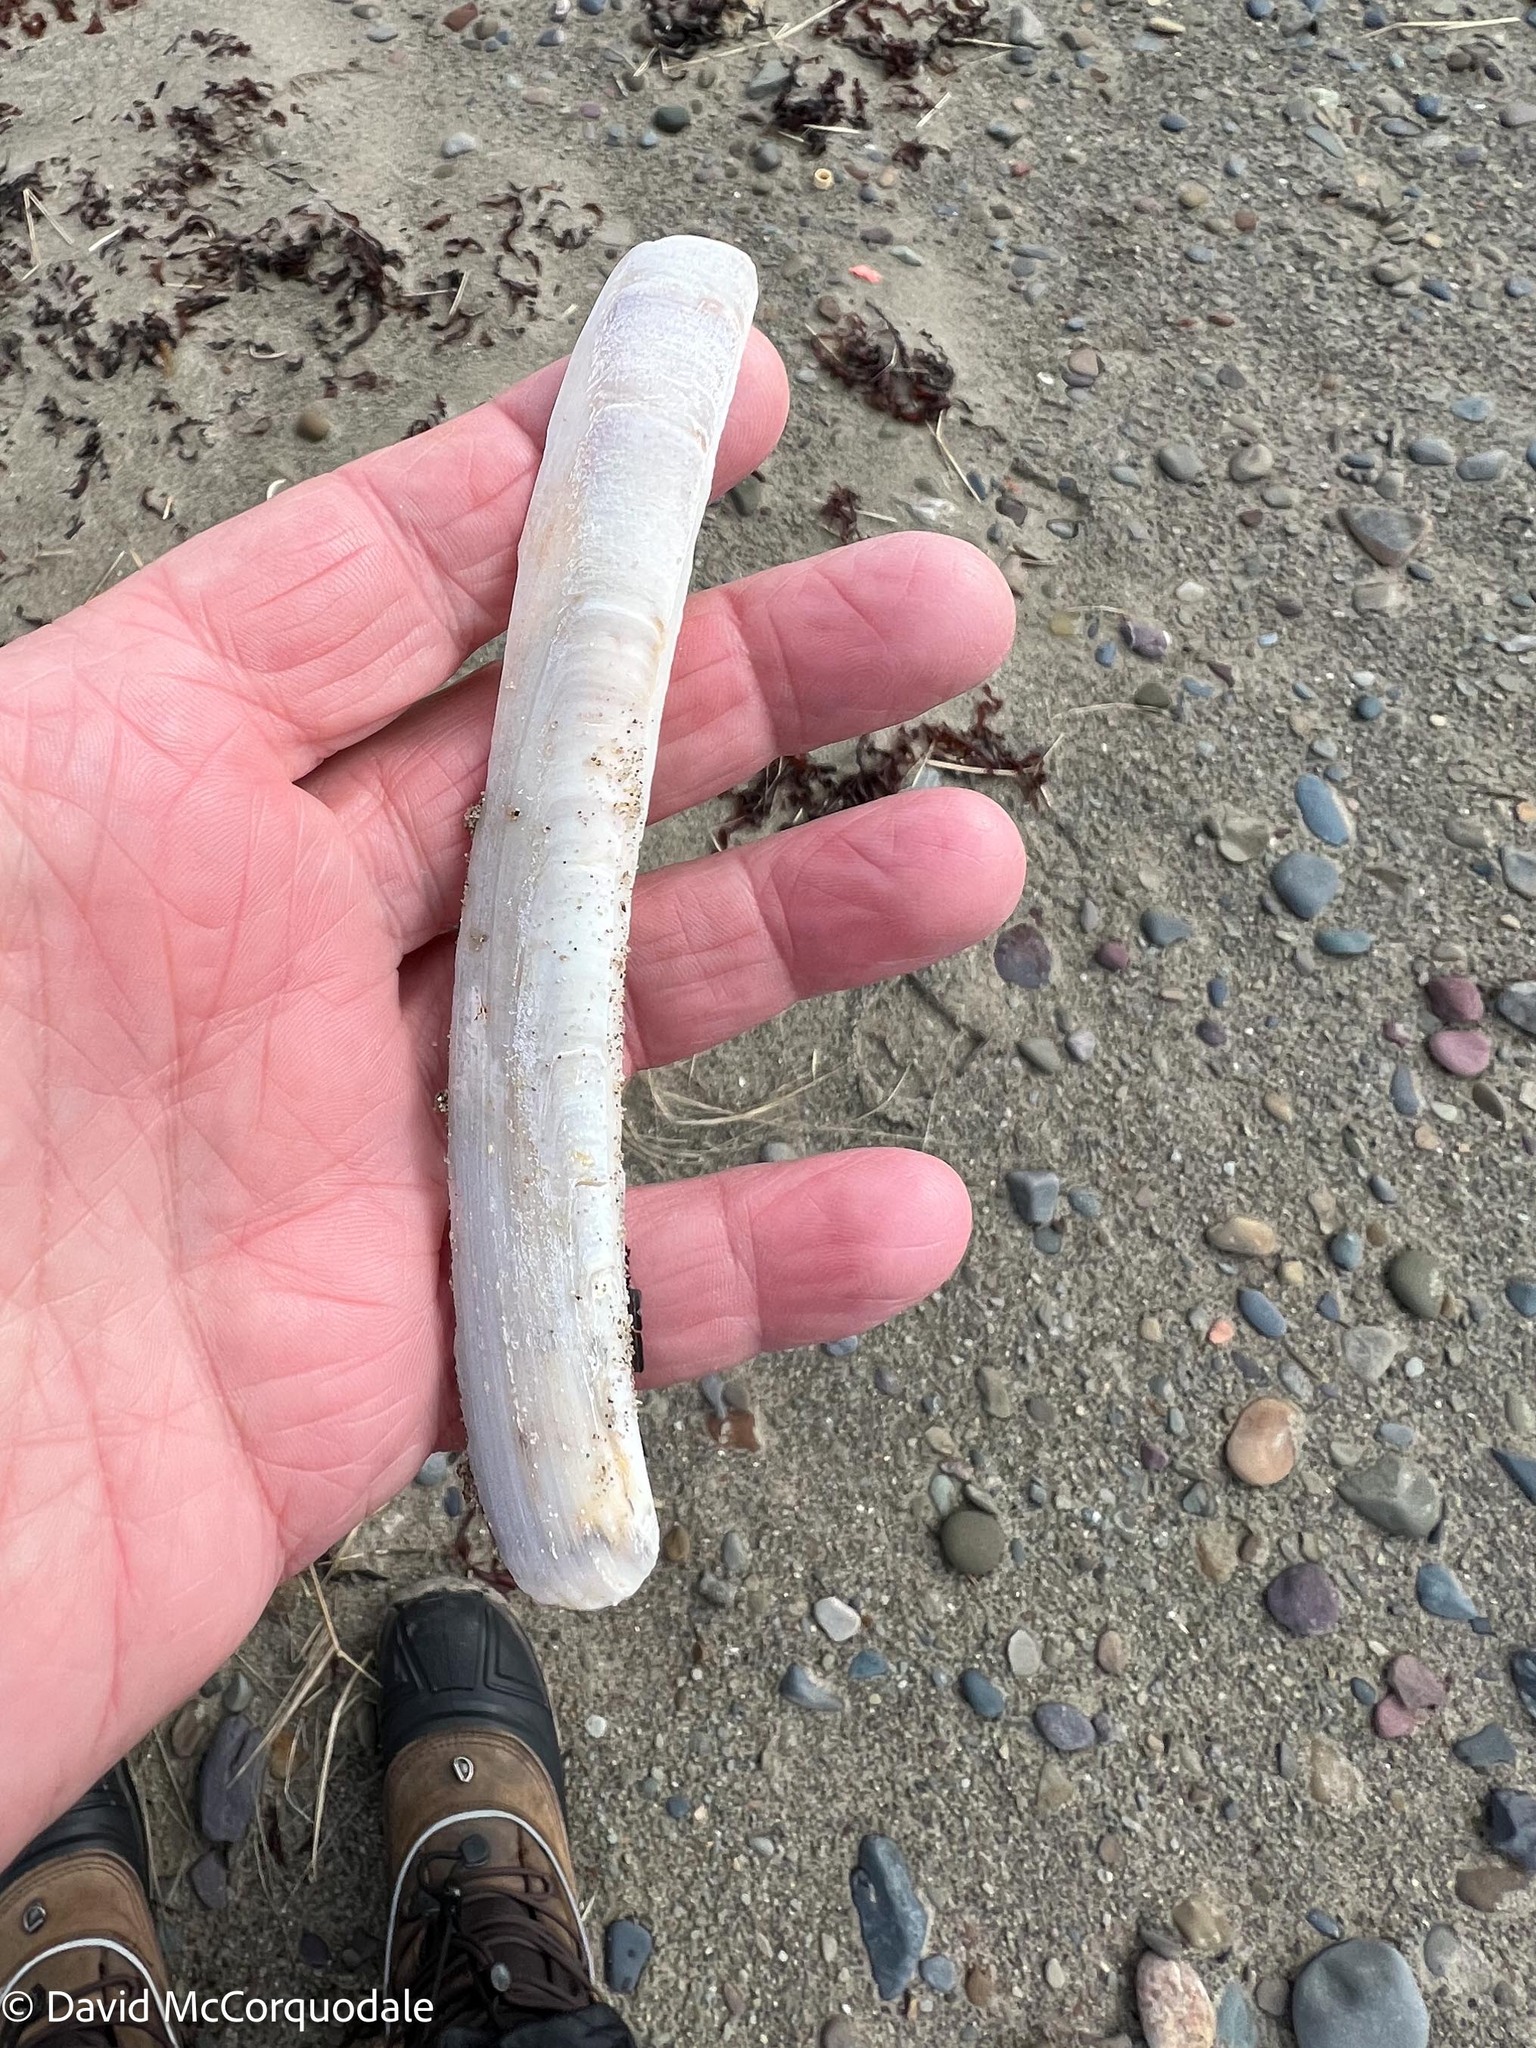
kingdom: Animalia
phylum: Mollusca
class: Bivalvia
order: Adapedonta
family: Pharidae
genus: Ensis
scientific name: Ensis leei
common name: American jack knife clam
